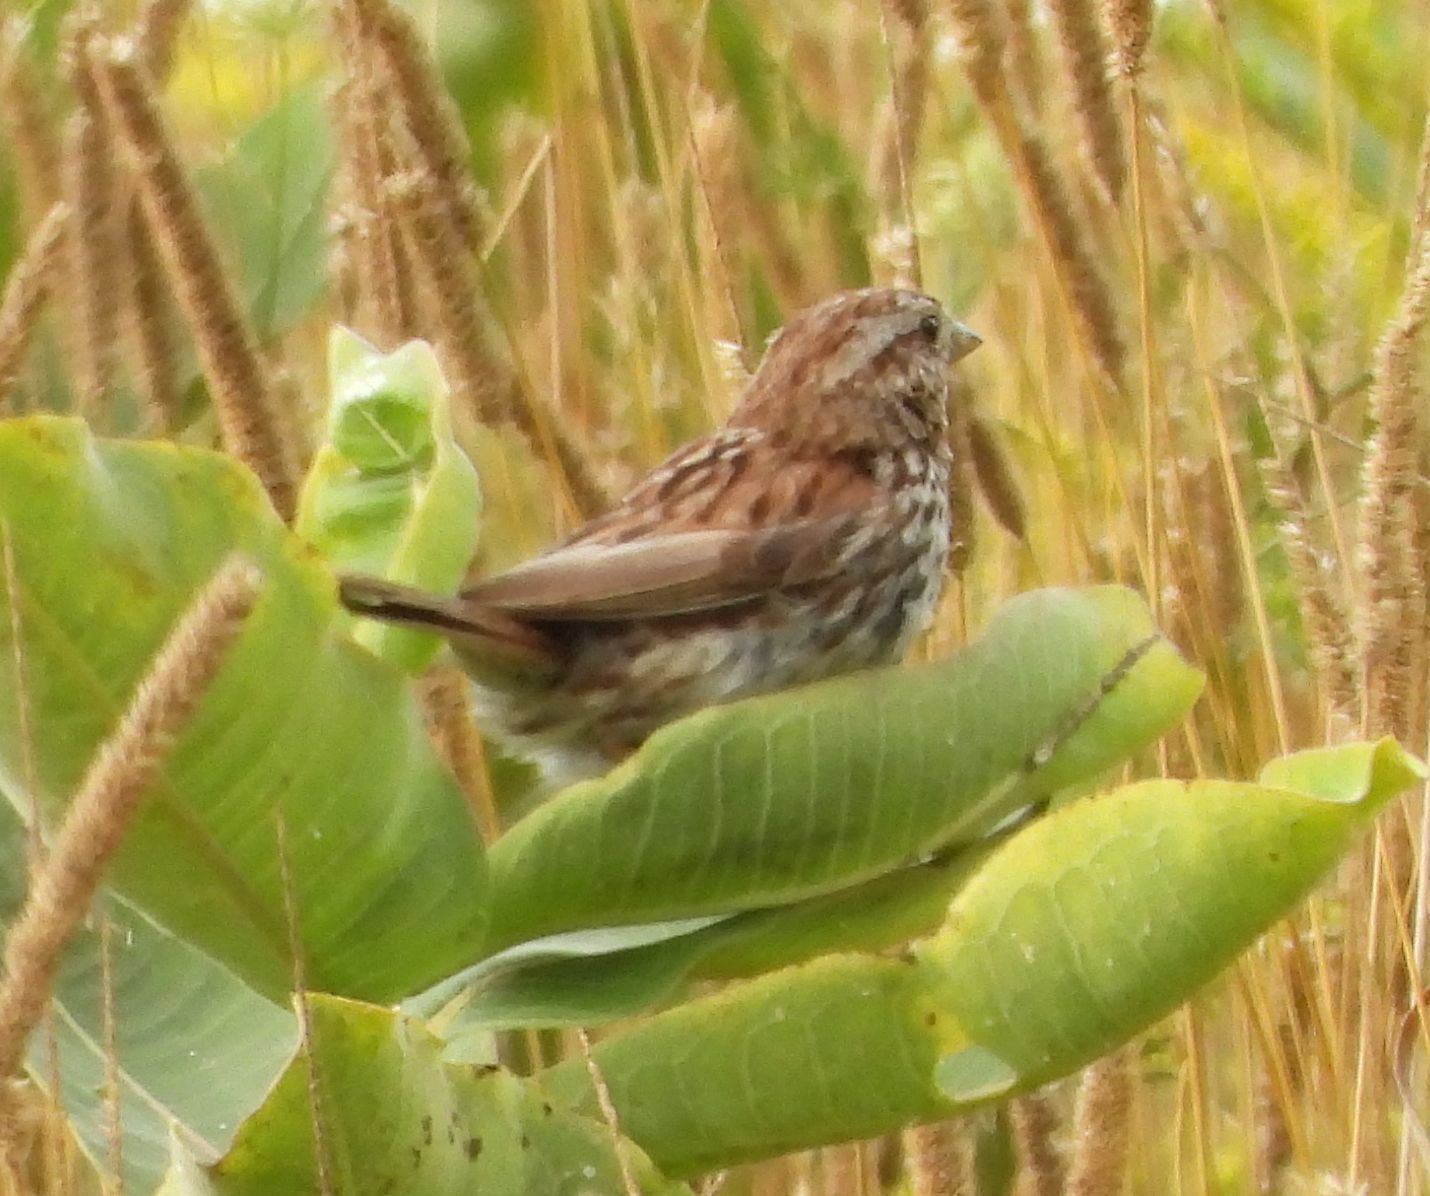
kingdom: Animalia
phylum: Chordata
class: Aves
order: Passeriformes
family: Passerellidae
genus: Melospiza
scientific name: Melospiza melodia
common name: Song sparrow
